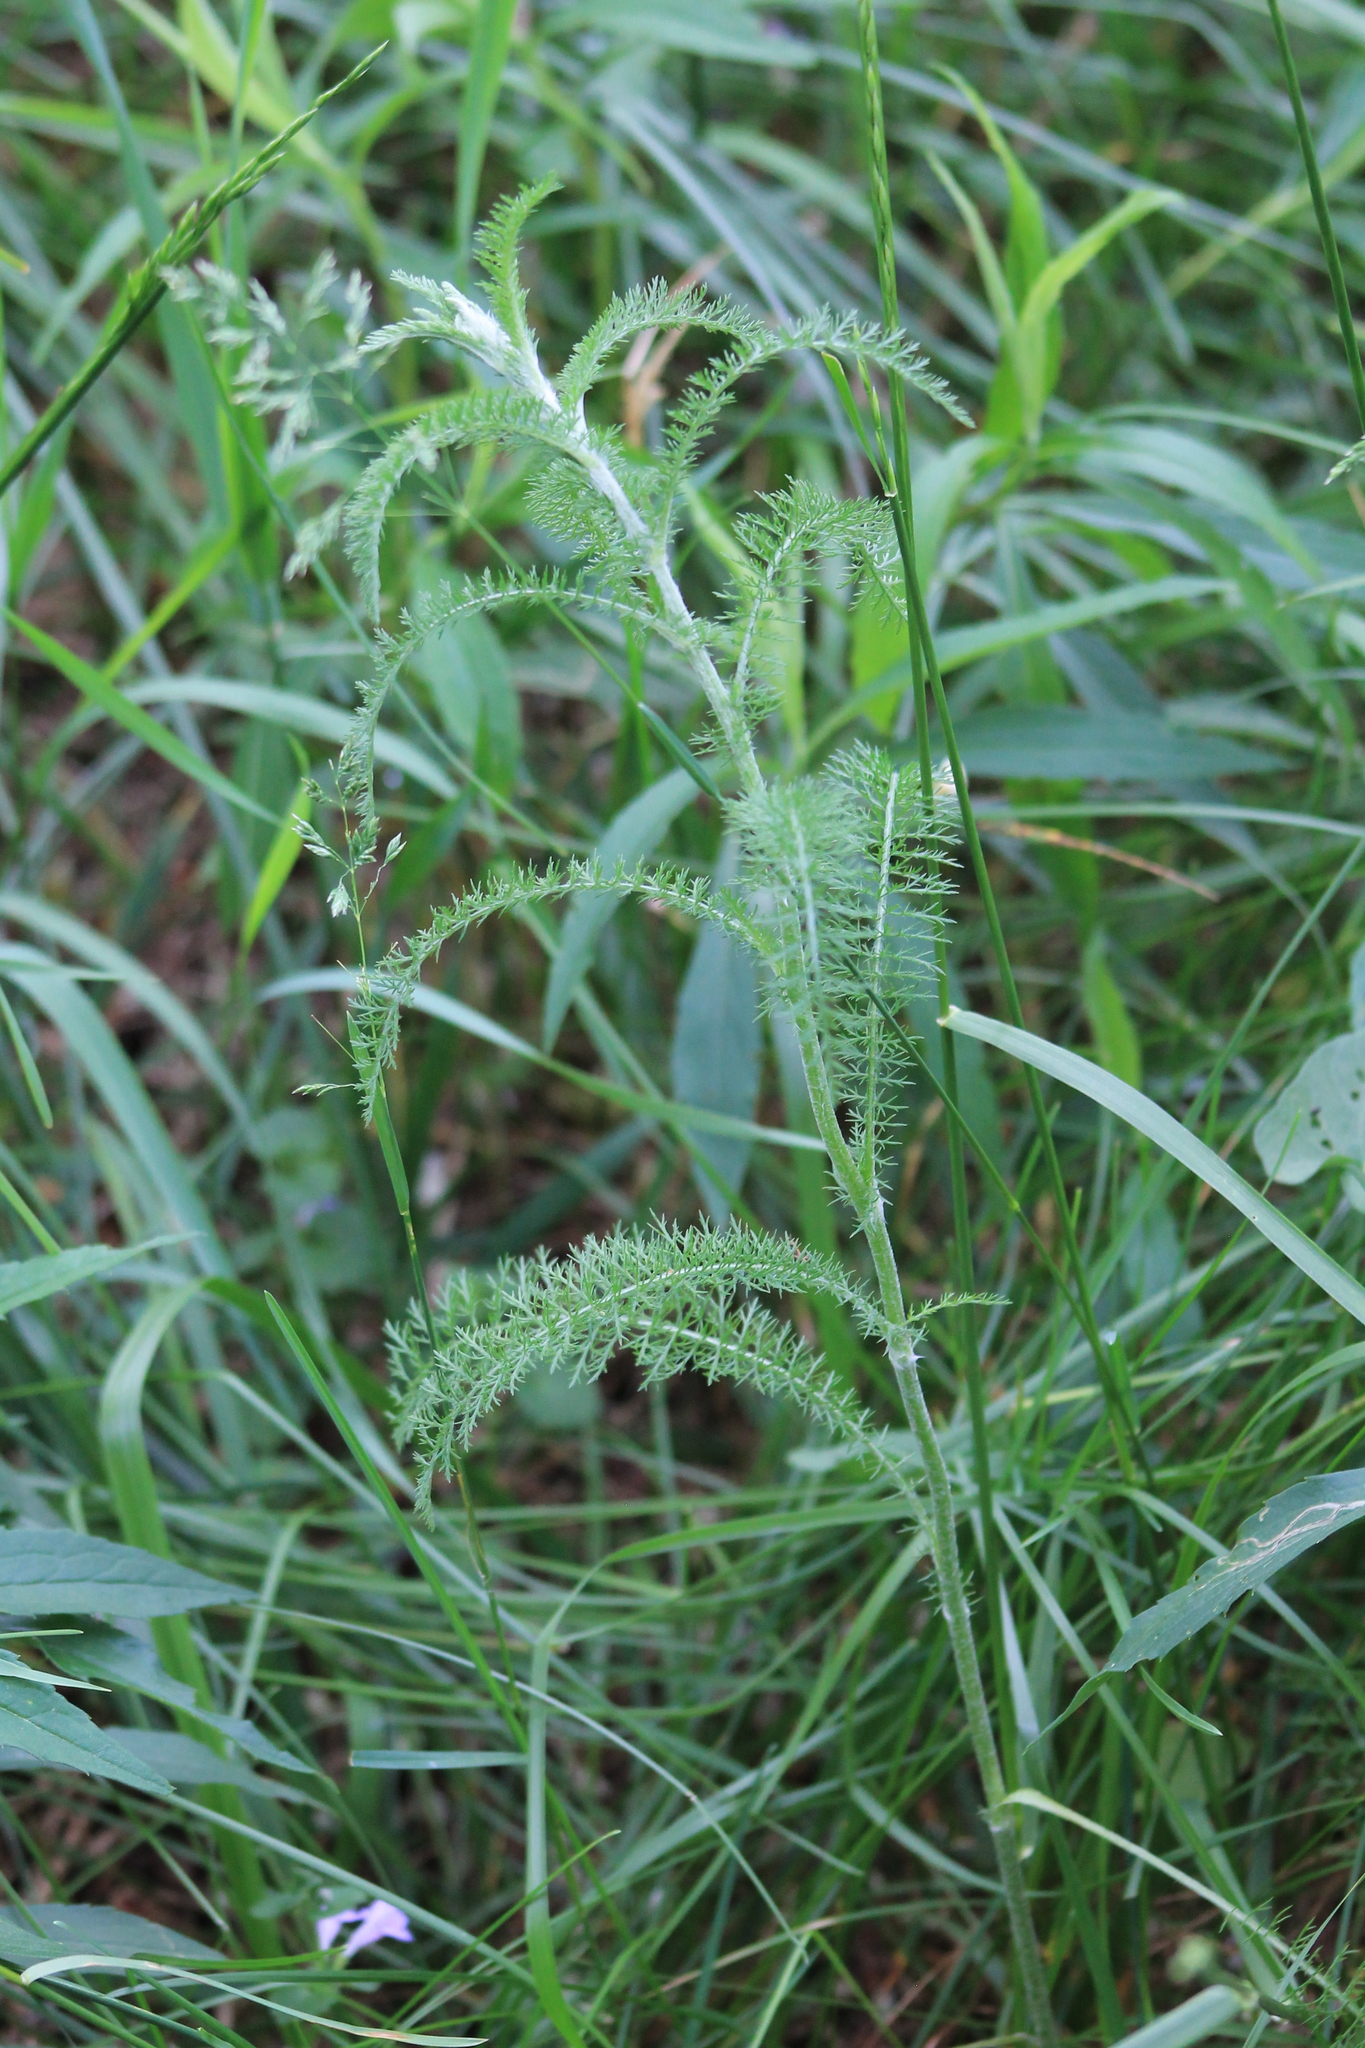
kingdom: Plantae
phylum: Tracheophyta
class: Magnoliopsida
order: Asterales
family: Asteraceae
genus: Achillea
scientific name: Achillea millefolium
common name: Yarrow
